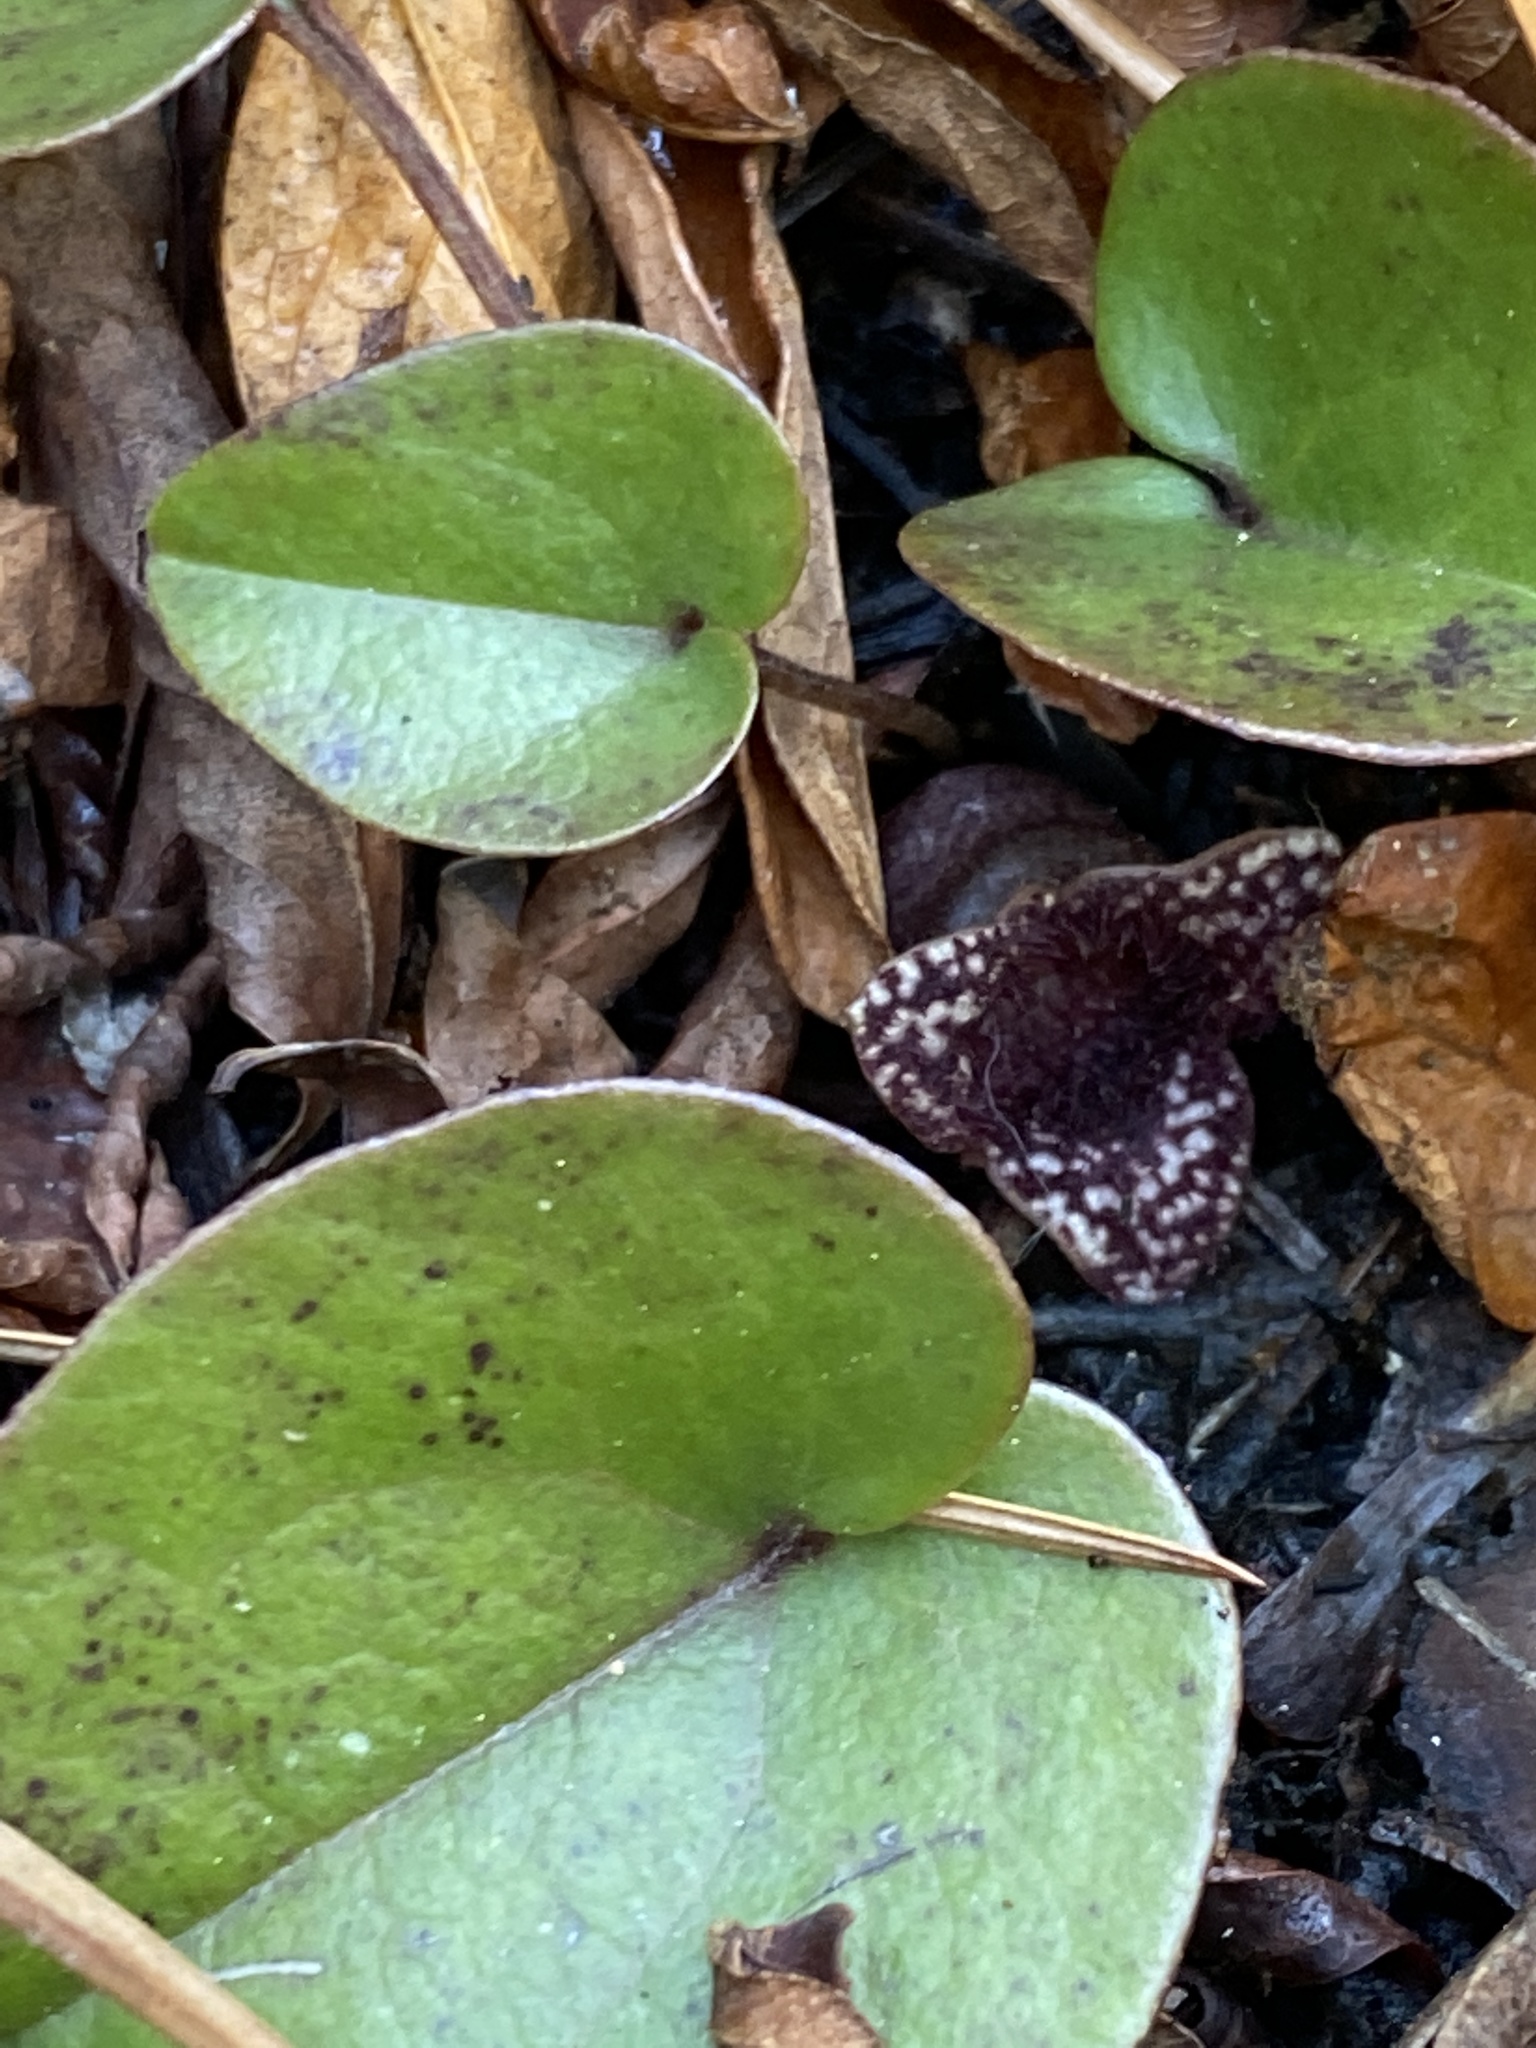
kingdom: Plantae
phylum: Tracheophyta
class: Magnoliopsida
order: Piperales
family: Aristolochiaceae
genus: Hexastylis
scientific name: Hexastylis sorriei
